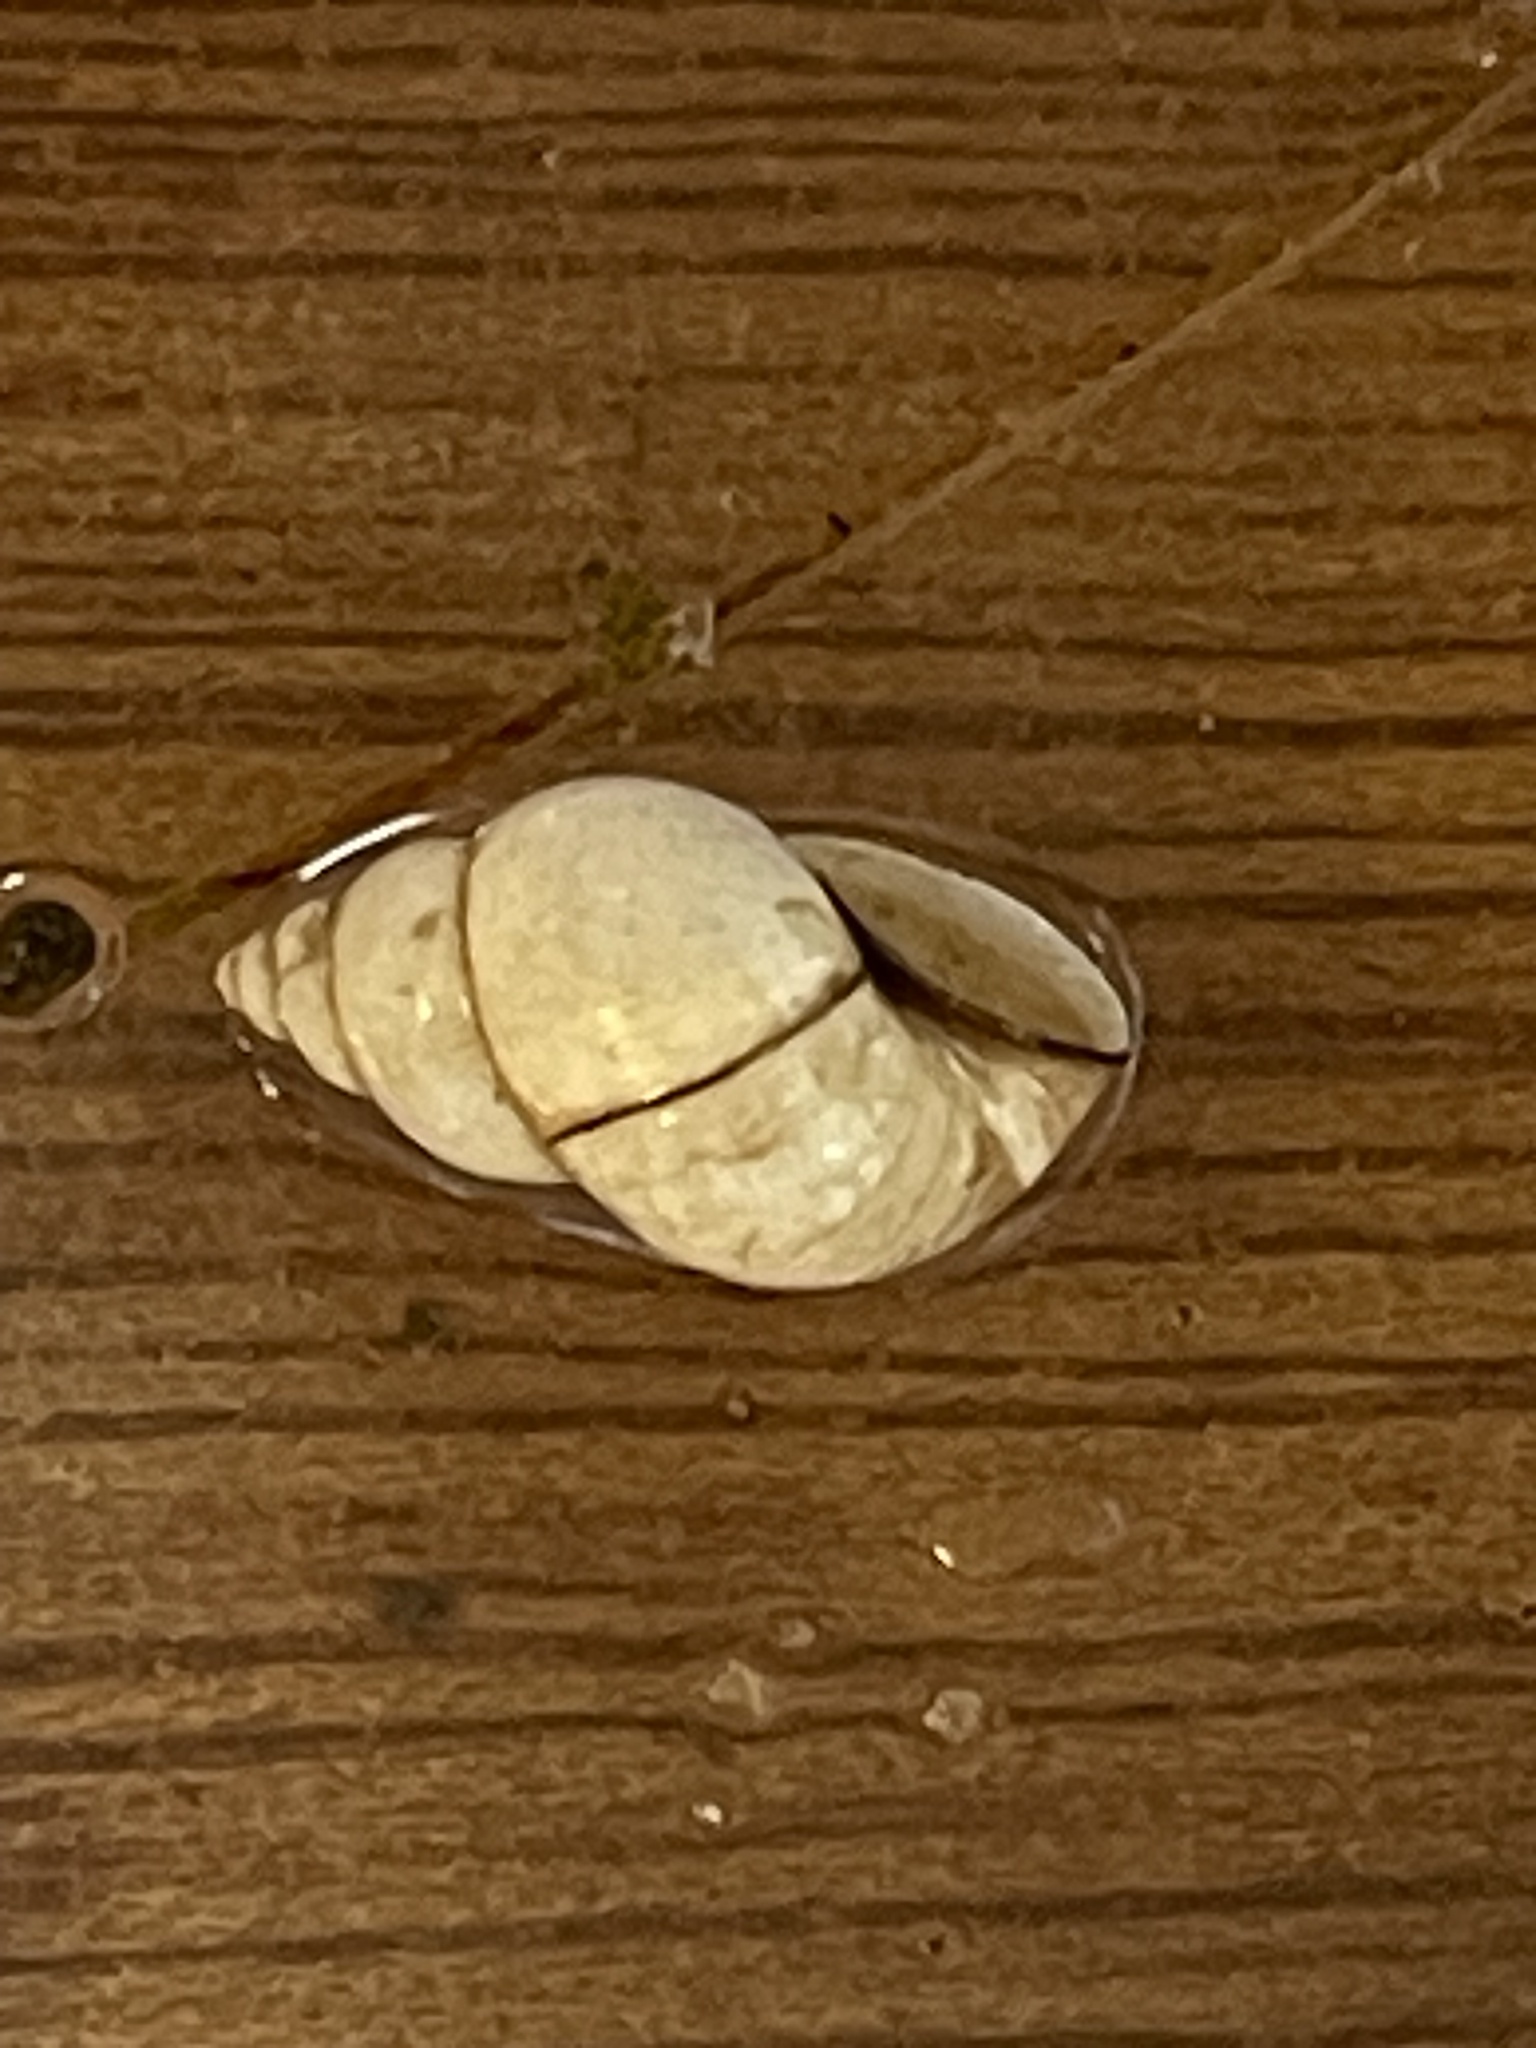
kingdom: Animalia
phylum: Mollusca
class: Gastropoda
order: Littorinimorpha
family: Bithyniidae
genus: Bithynia
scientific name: Bithynia tentaculata
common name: Common bithynia
